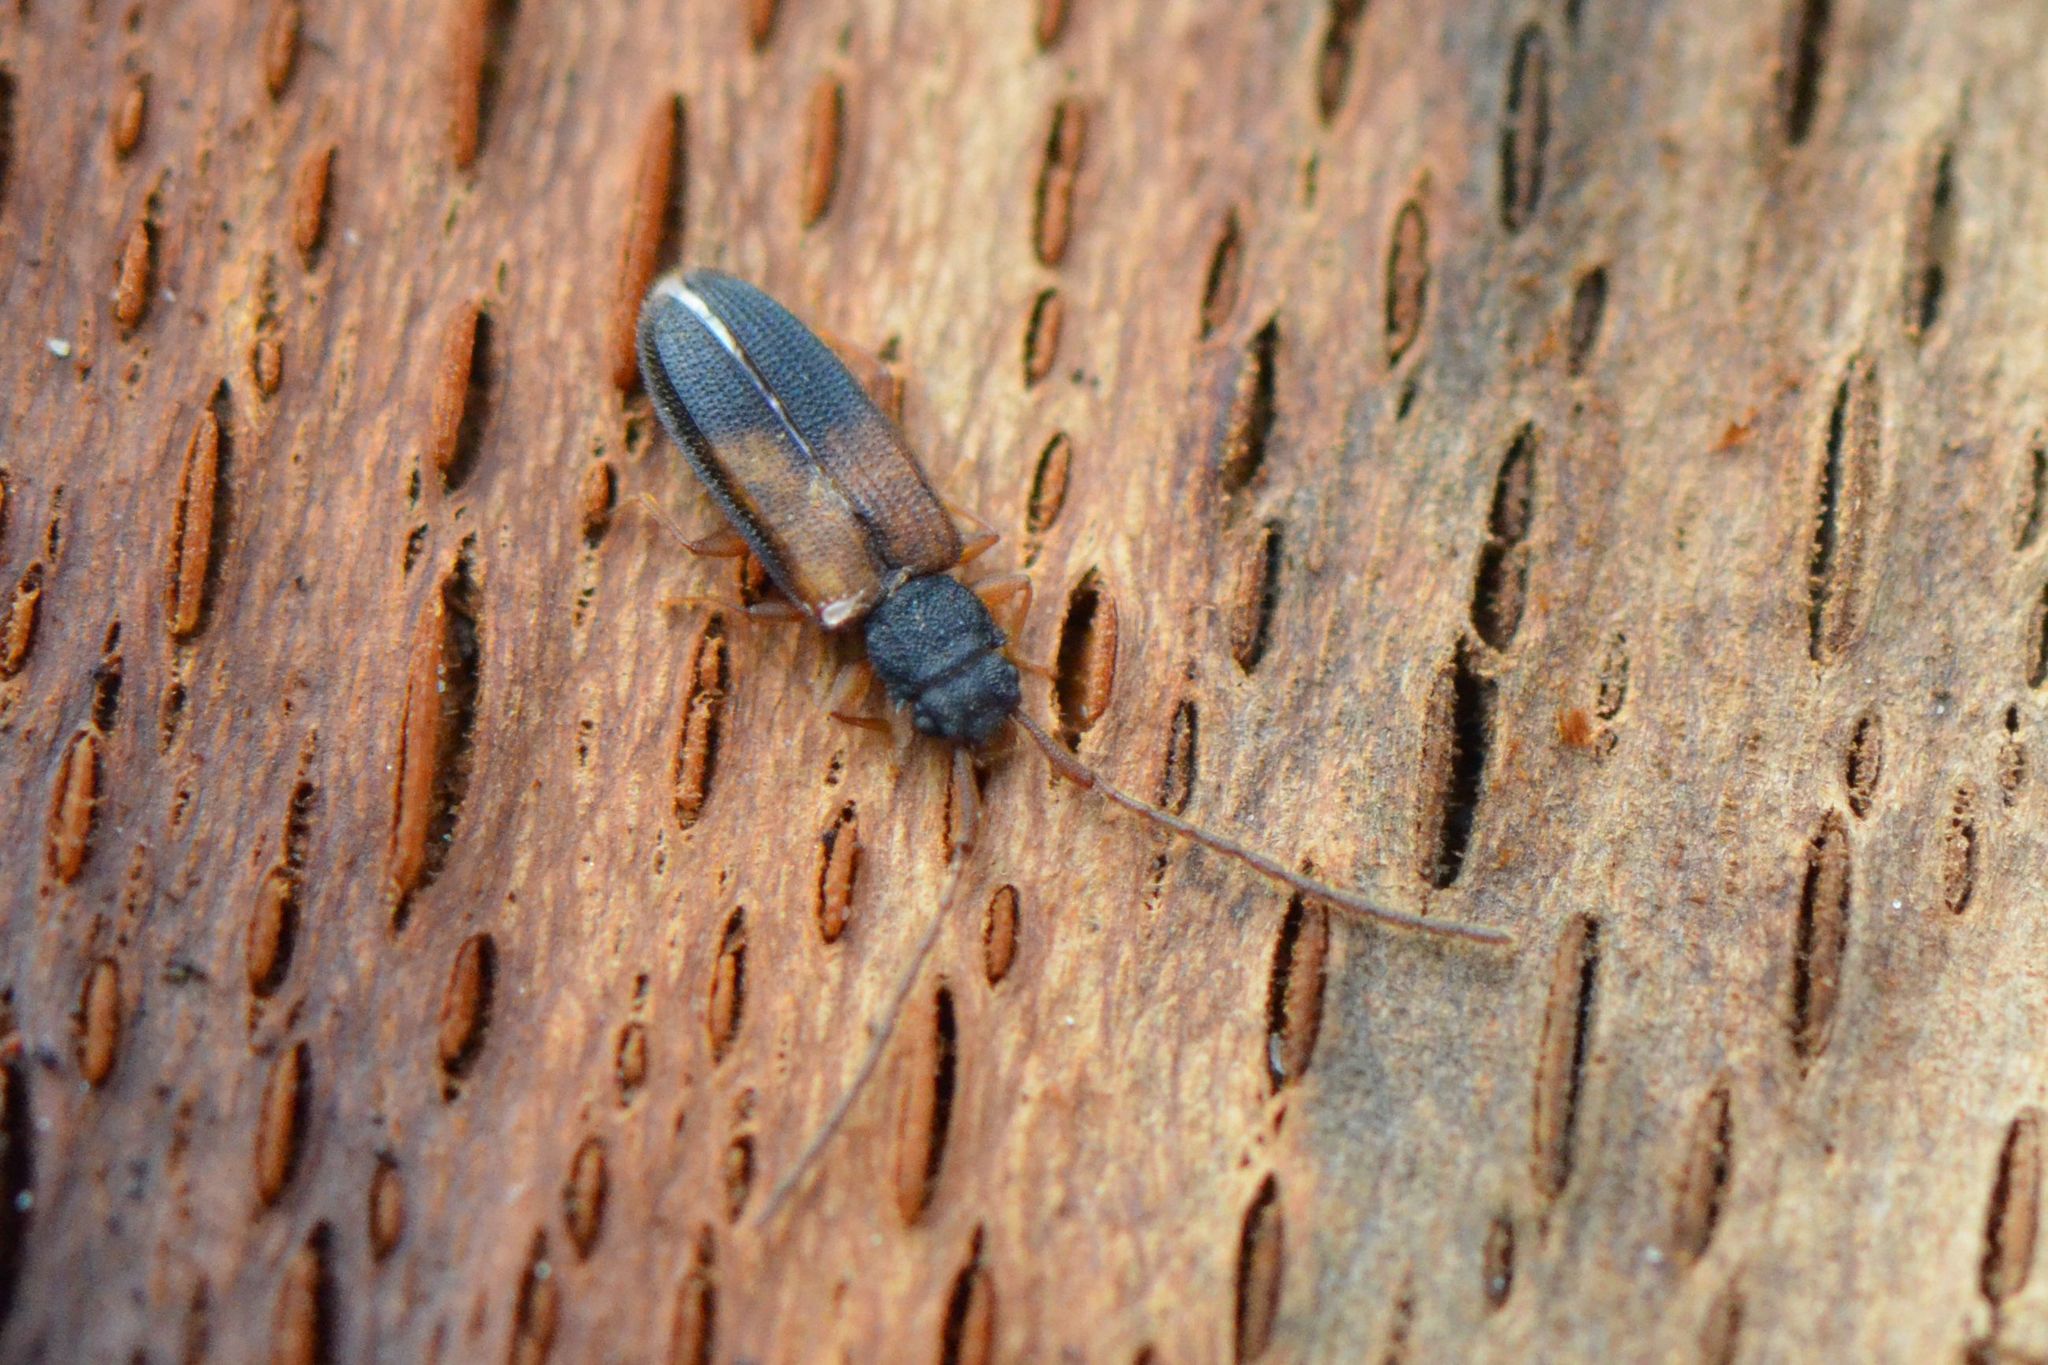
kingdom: Animalia
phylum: Arthropoda
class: Insecta
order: Coleoptera
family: Silvanidae
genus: Uleiota
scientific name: Uleiota planatus
